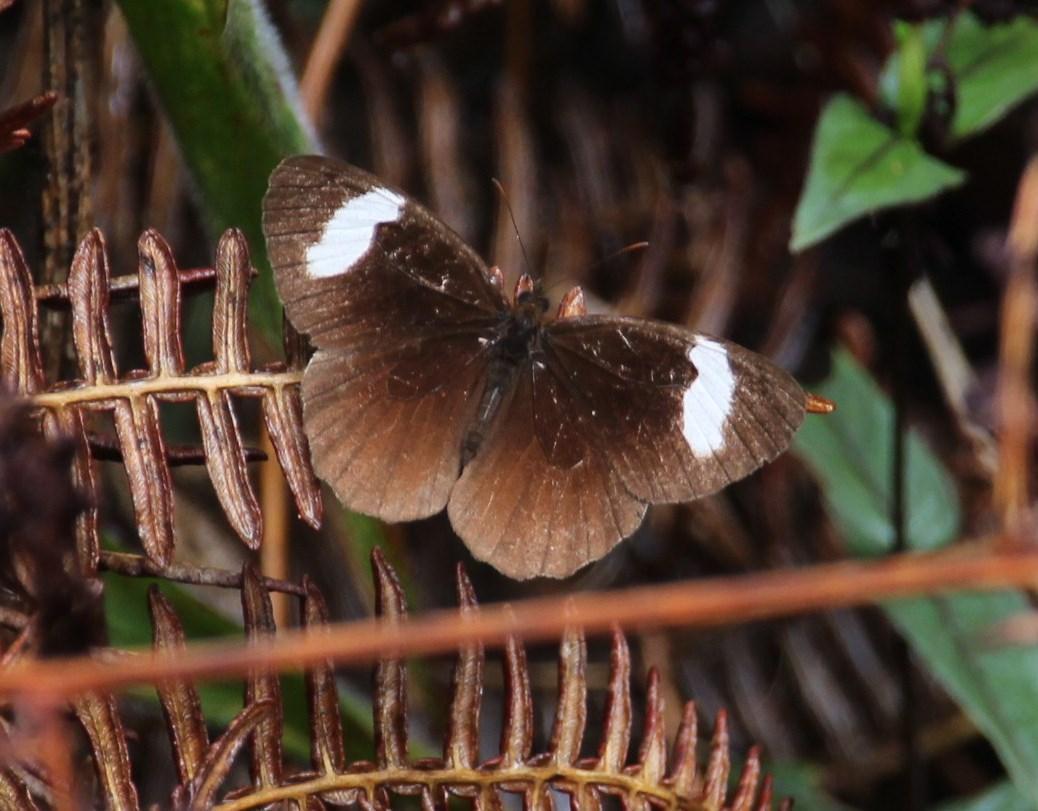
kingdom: Animalia
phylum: Arthropoda
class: Insecta
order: Lepidoptera
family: Nymphalidae
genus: Pedaliodes
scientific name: Pedaliodes porina
